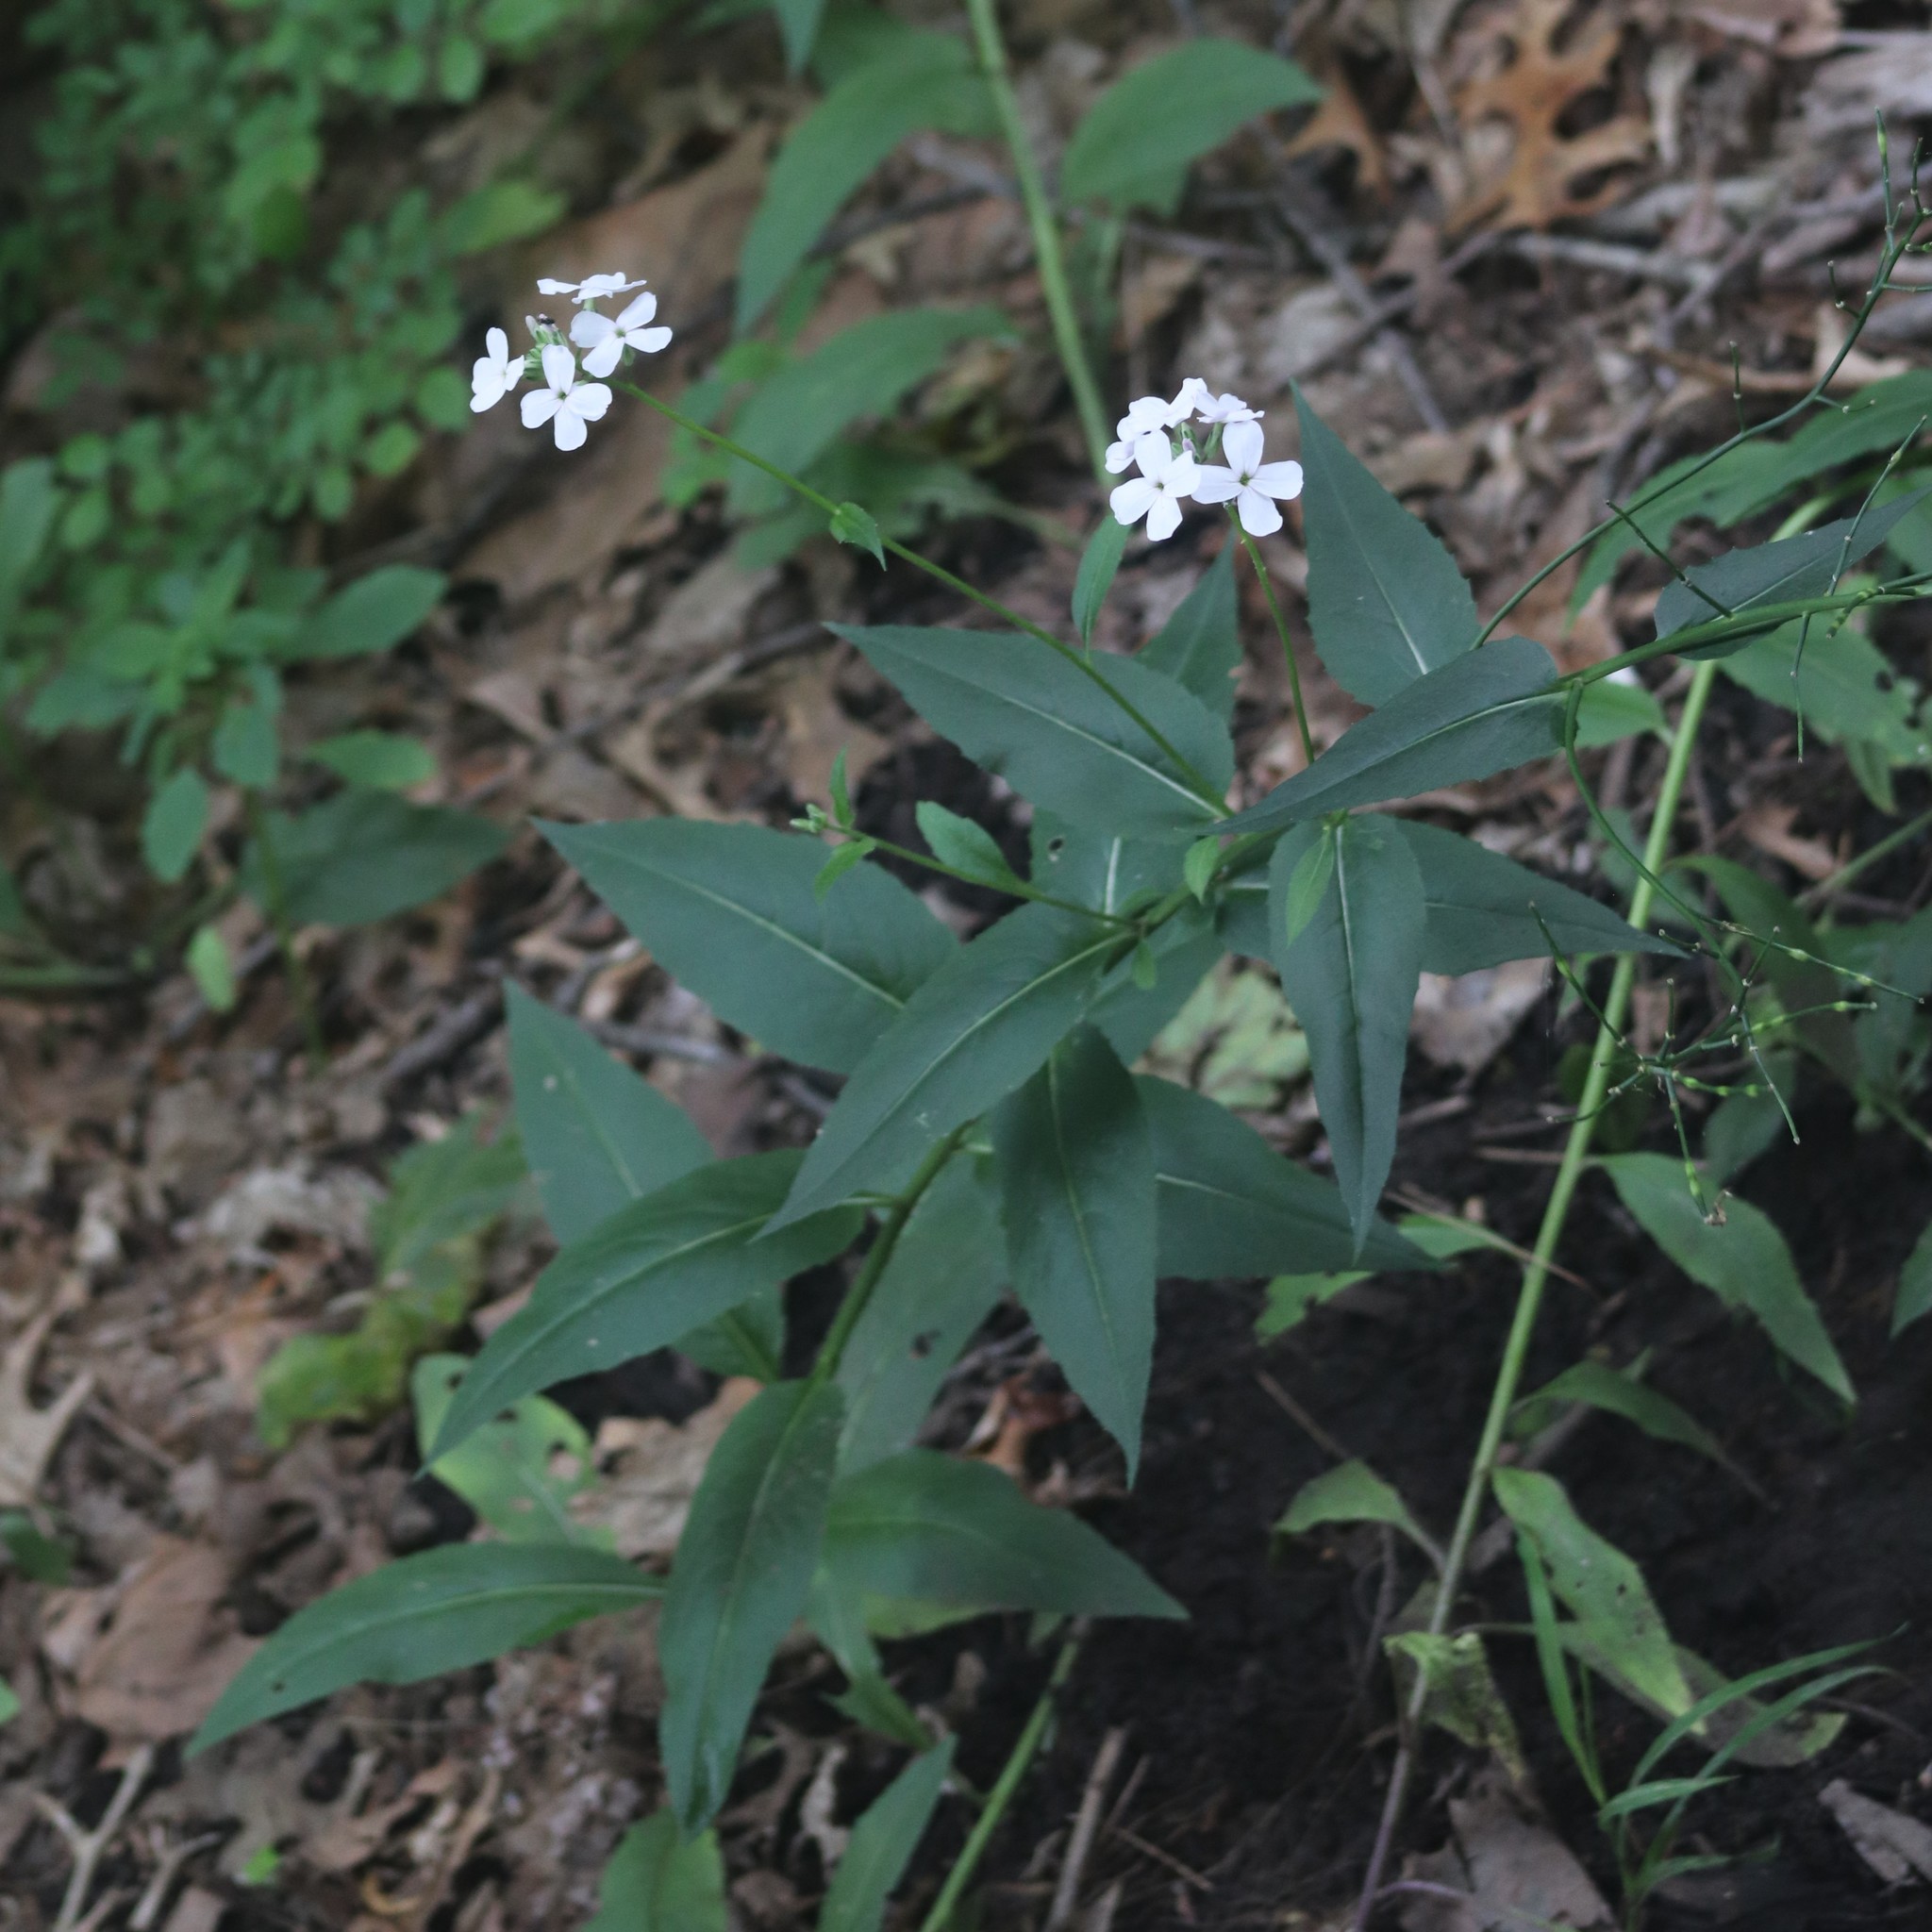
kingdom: Plantae
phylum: Tracheophyta
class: Magnoliopsida
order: Brassicales
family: Brassicaceae
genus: Hesperis
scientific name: Hesperis matronalis
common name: Dame's-violet
